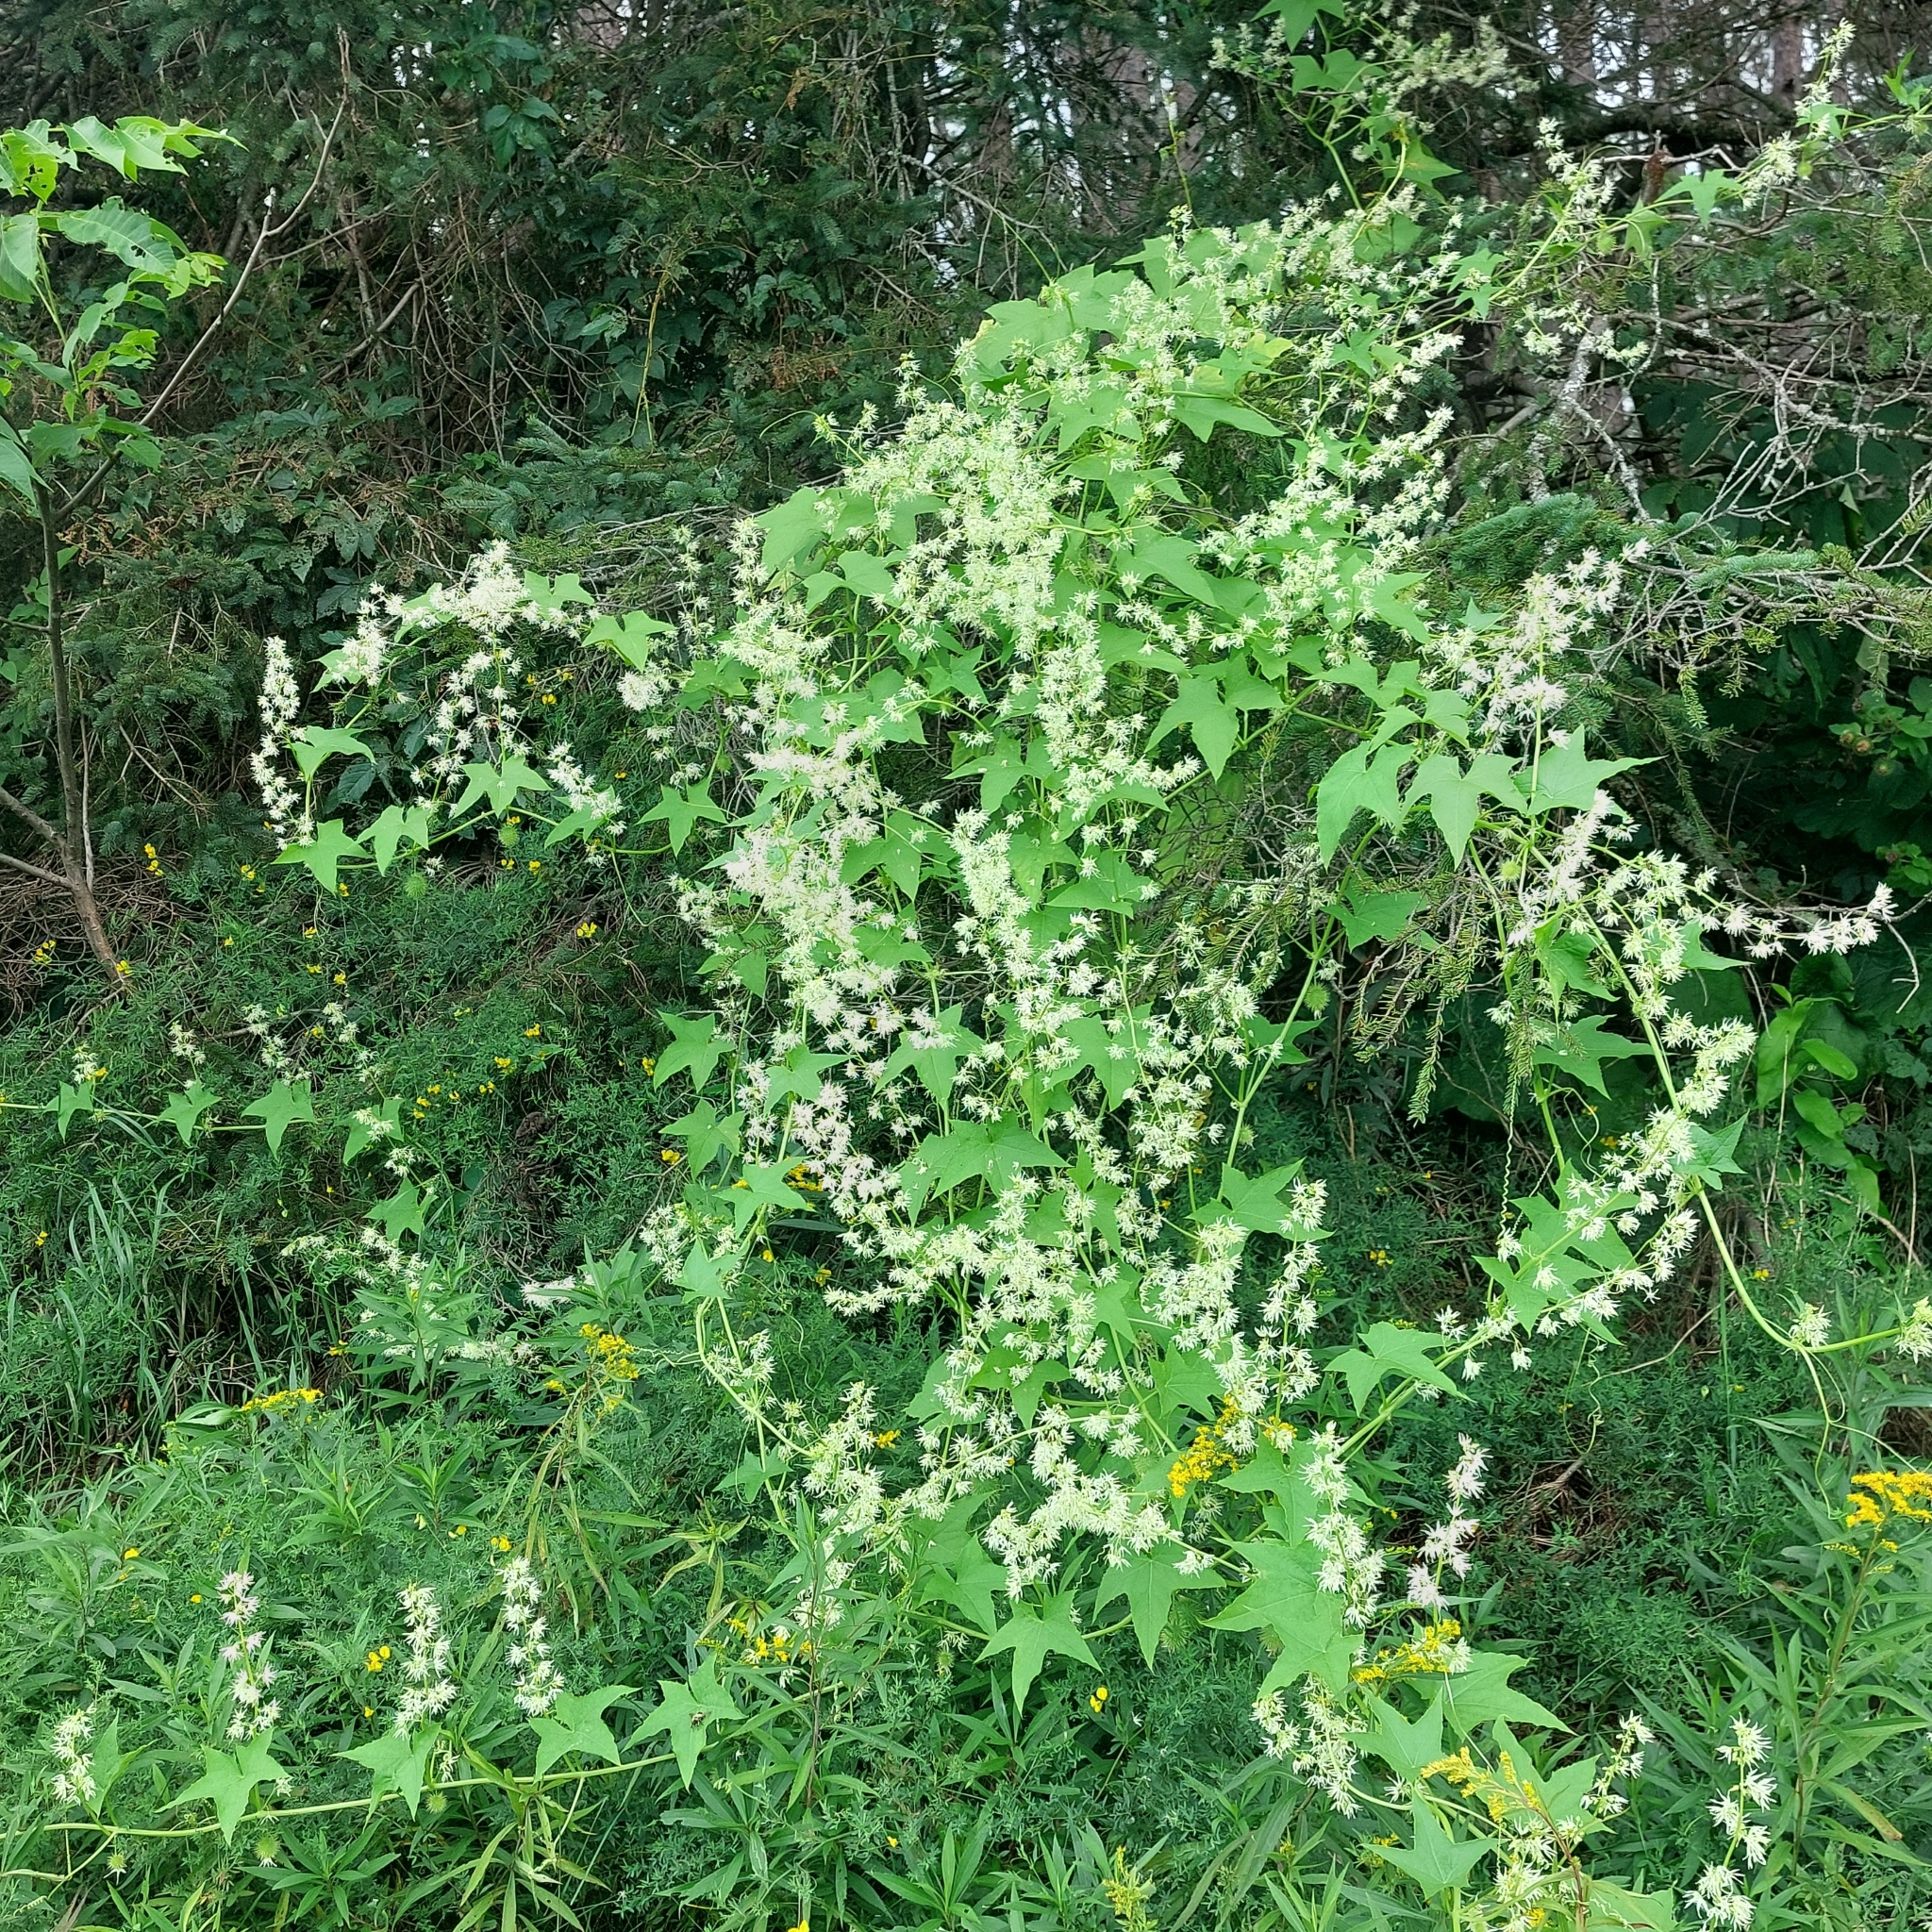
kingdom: Plantae
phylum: Tracheophyta
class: Magnoliopsida
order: Cucurbitales
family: Cucurbitaceae
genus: Echinocystis
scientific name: Echinocystis lobata
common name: Wild cucumber
